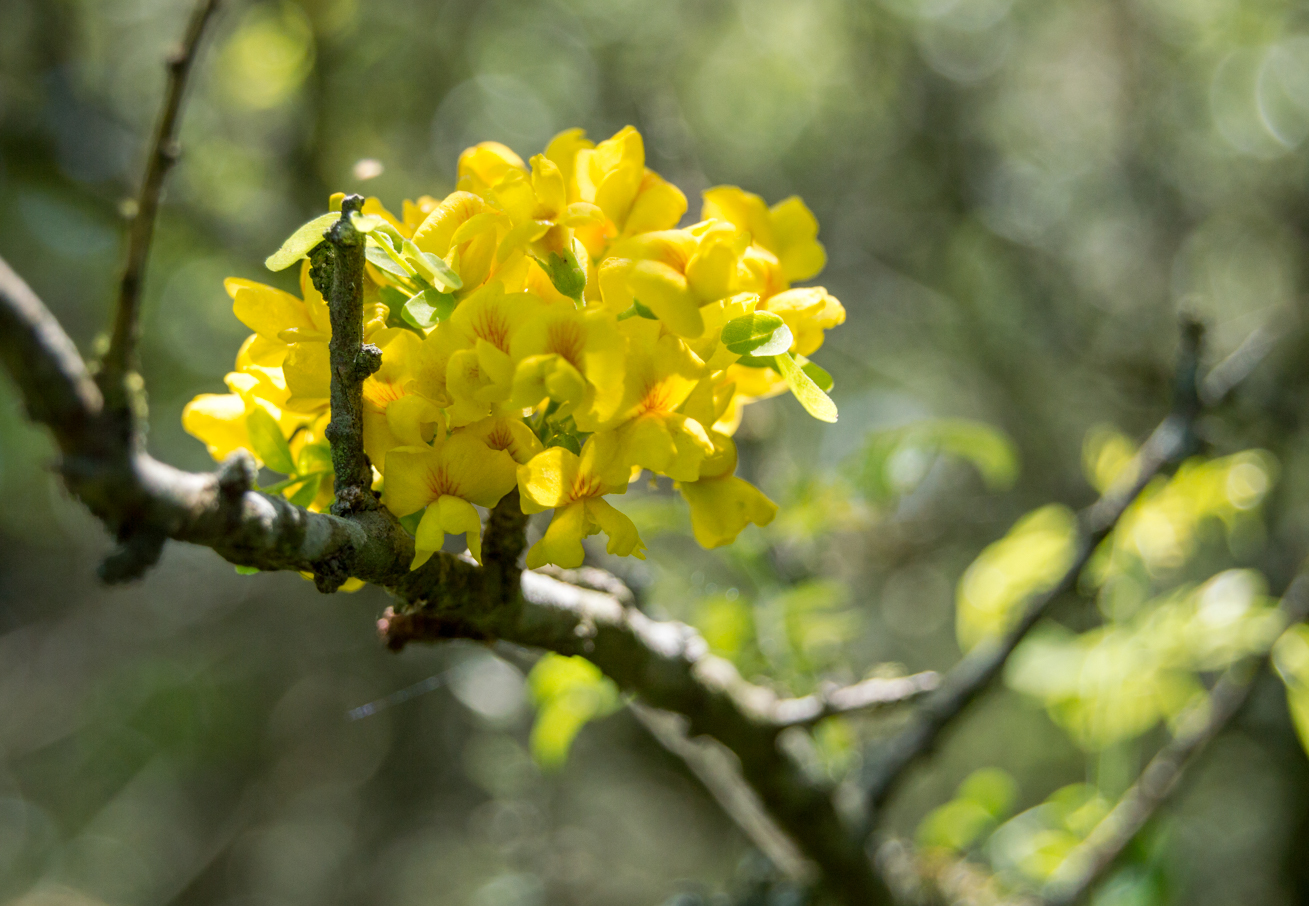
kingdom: Plantae
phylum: Tracheophyta
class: Magnoliopsida
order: Fabales
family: Fabaceae
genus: Geoffroea
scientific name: Geoffroea decorticans
